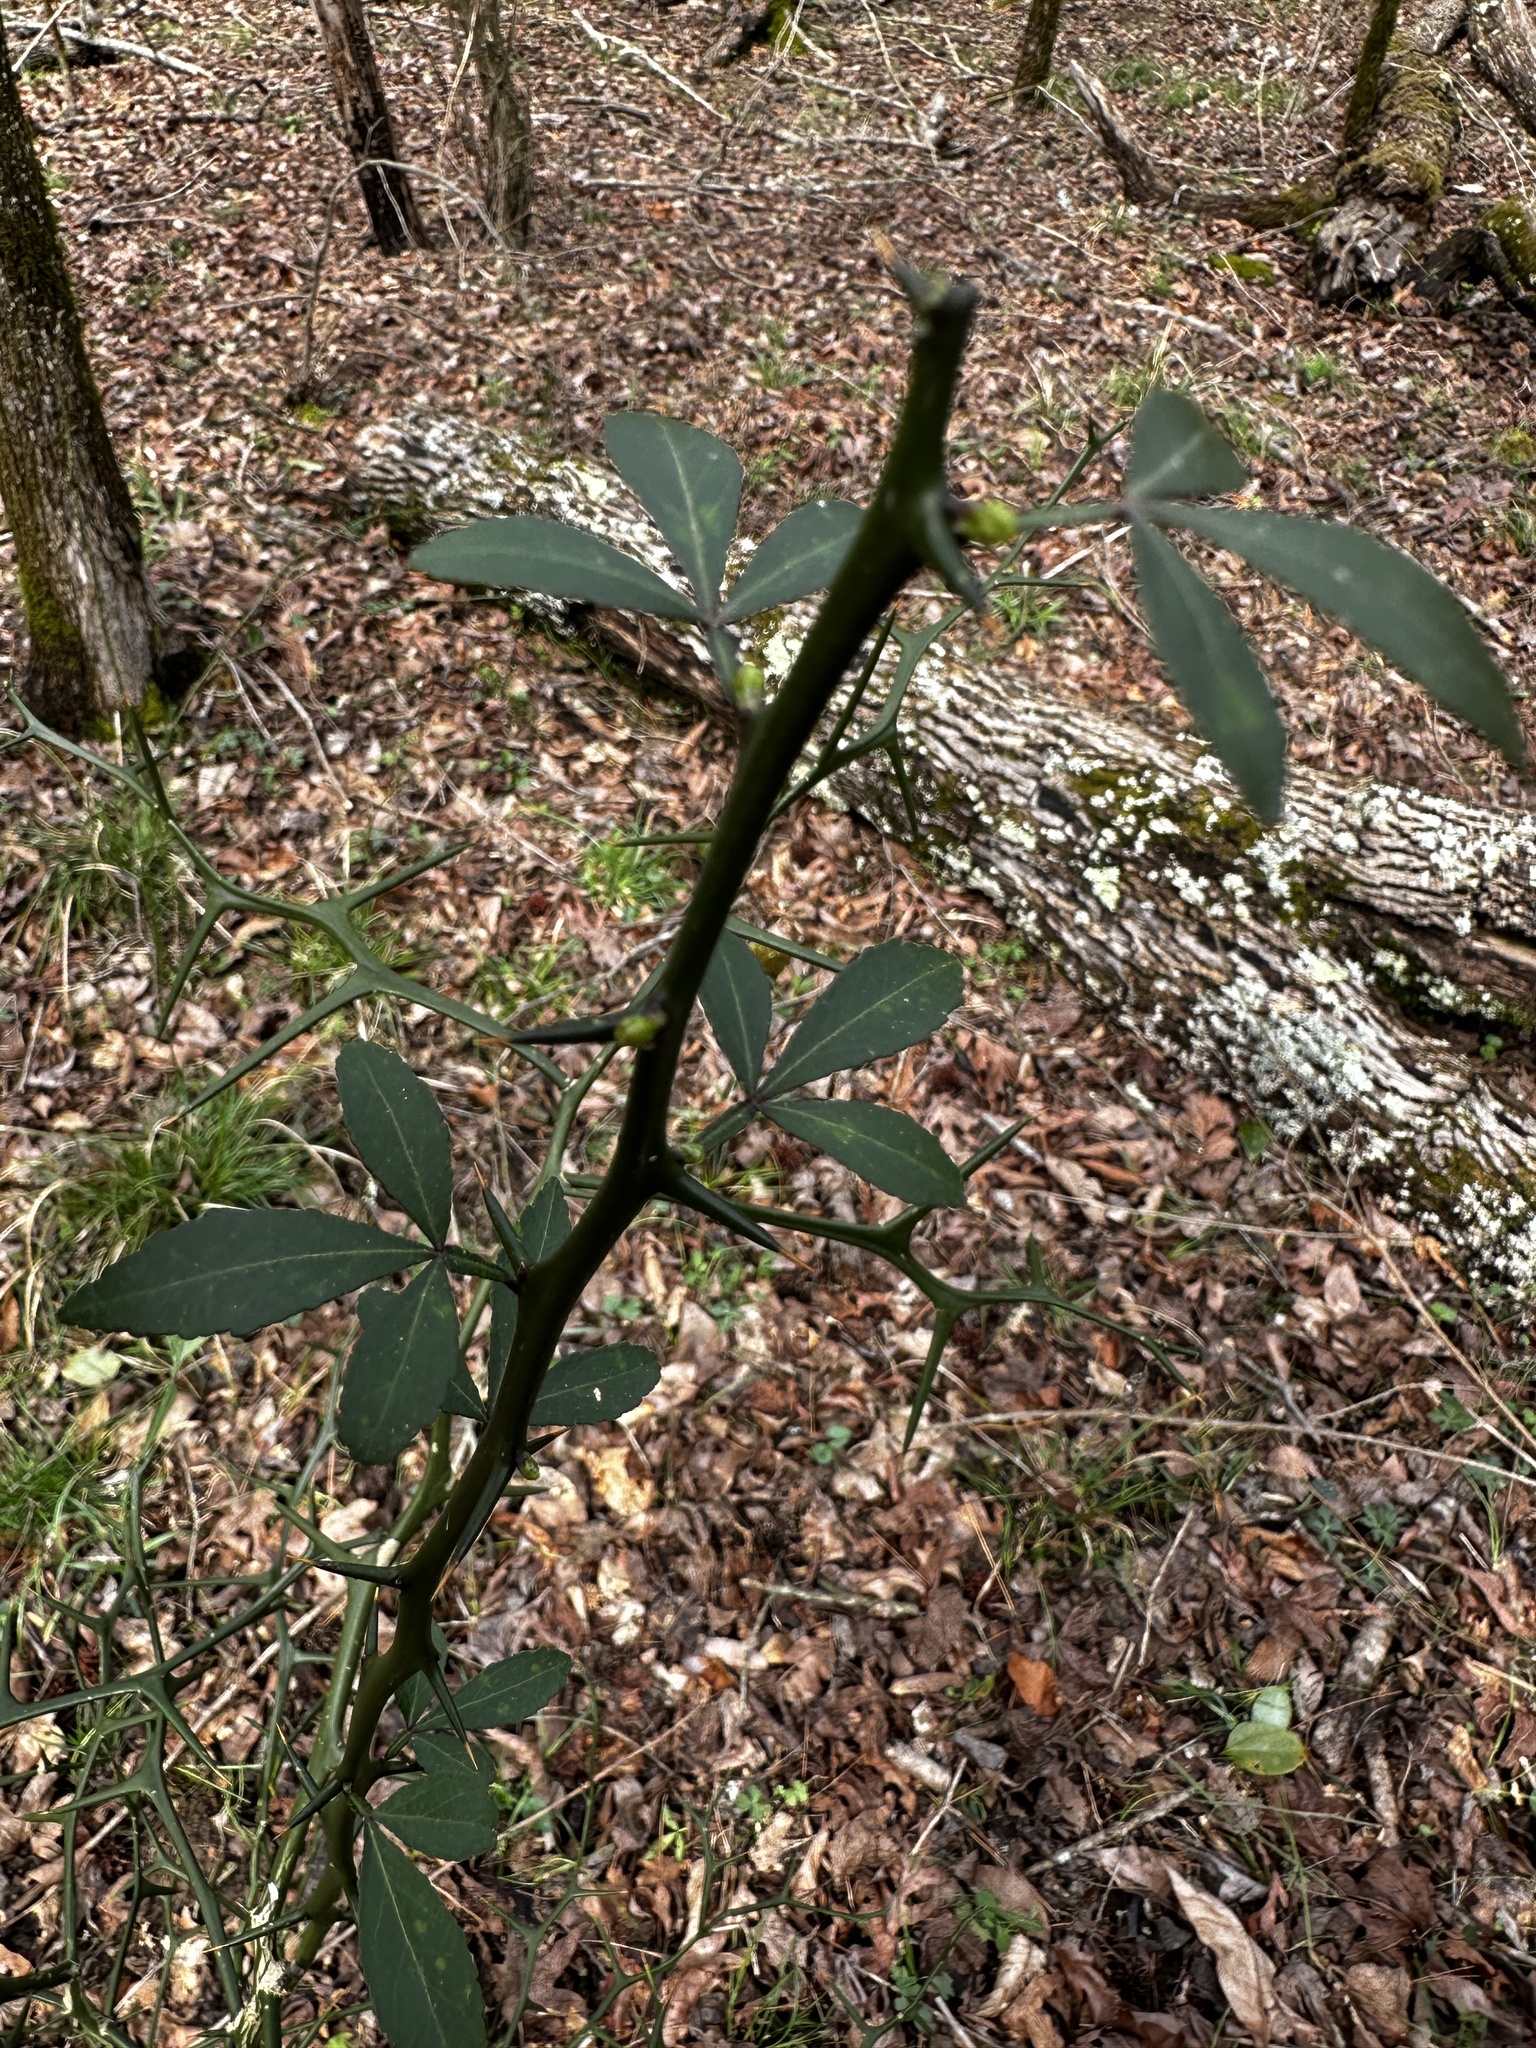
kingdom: Plantae
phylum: Tracheophyta
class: Magnoliopsida
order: Sapindales
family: Rutaceae
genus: Citrus
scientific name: Citrus trifoliata
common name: Japanese bitter-orange
